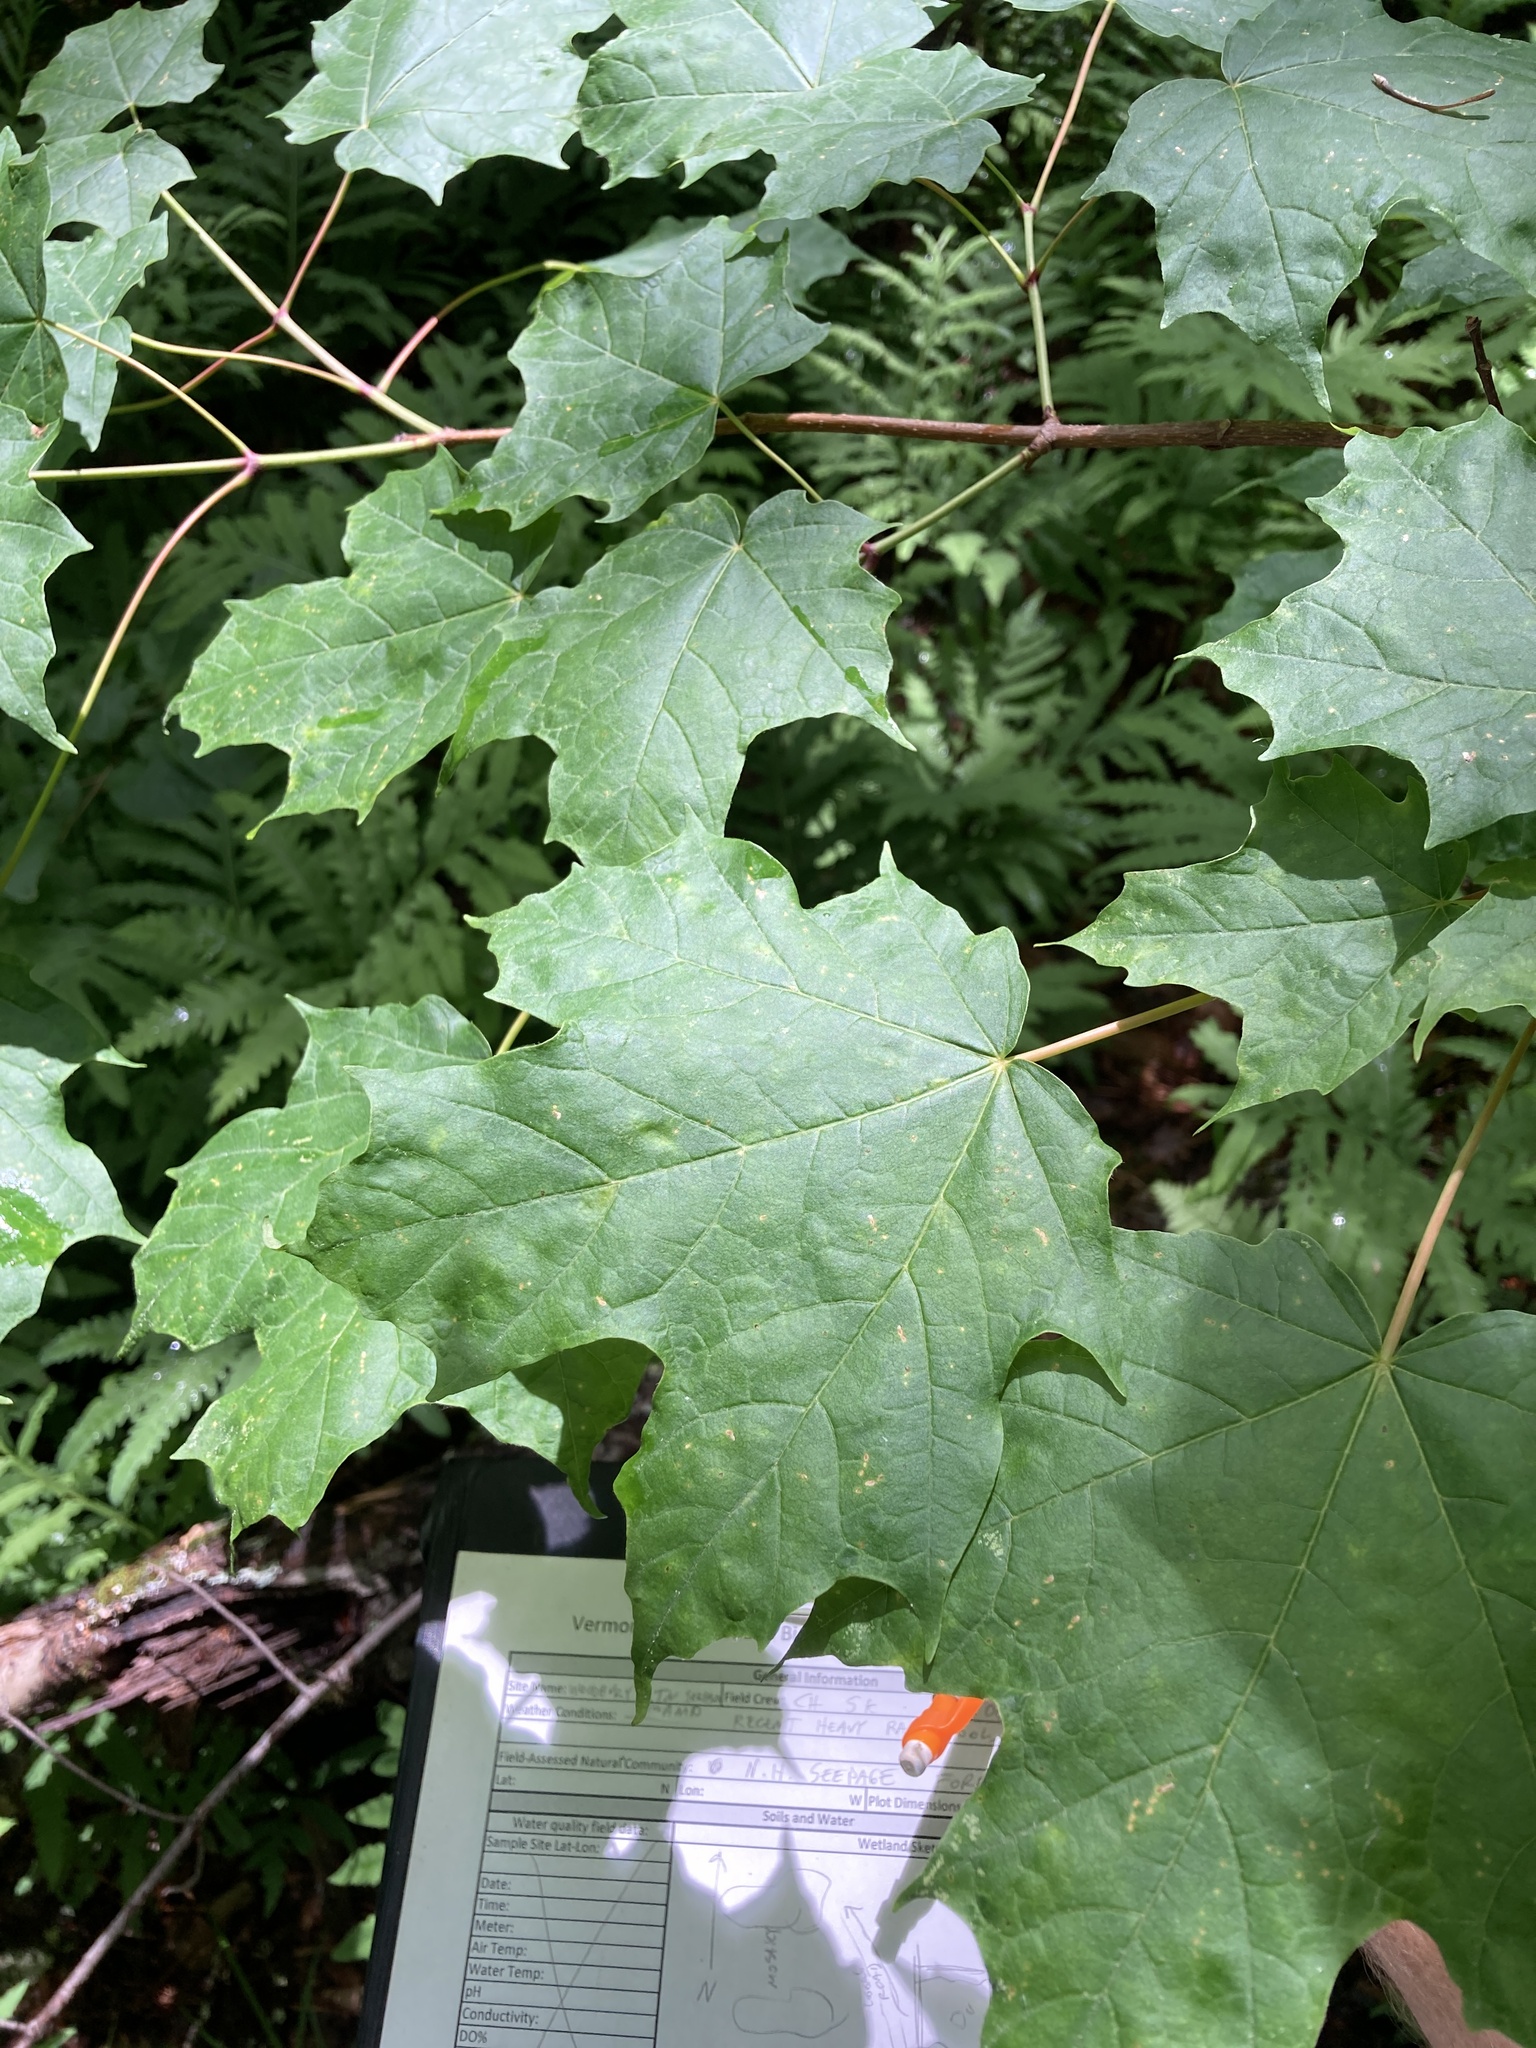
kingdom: Plantae
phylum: Tracheophyta
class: Magnoliopsida
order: Sapindales
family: Sapindaceae
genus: Acer
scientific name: Acer saccharum
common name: Sugar maple
